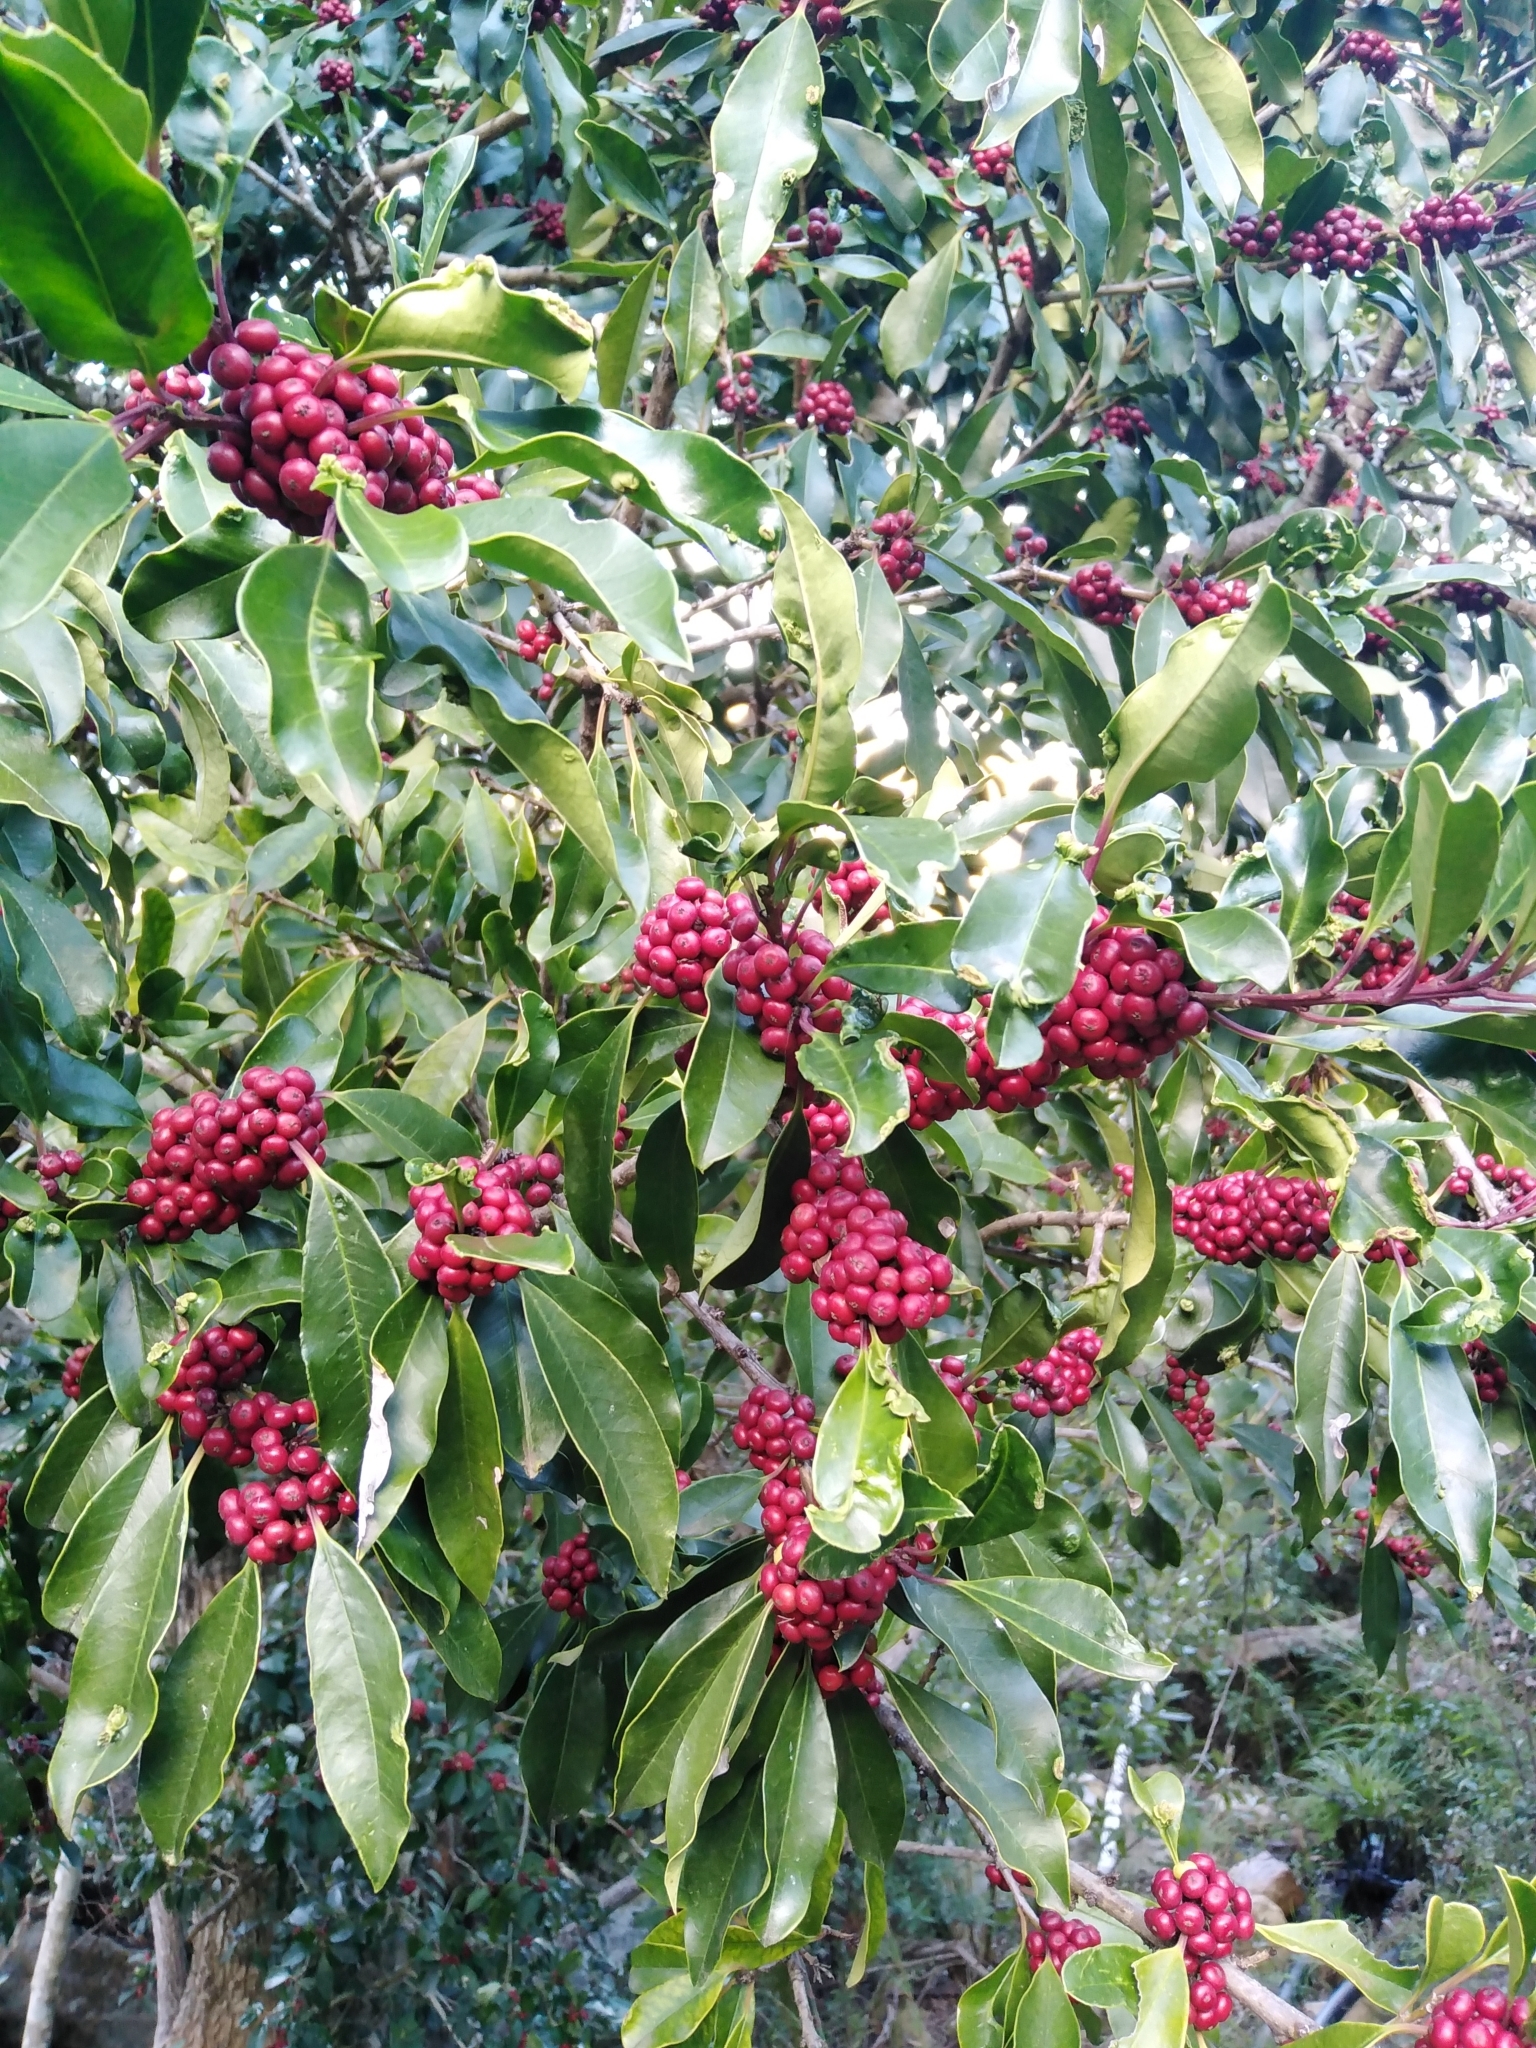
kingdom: Plantae
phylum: Tracheophyta
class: Magnoliopsida
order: Aquifoliales
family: Aquifoliaceae
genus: Ilex
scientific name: Ilex mitis
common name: African holly
